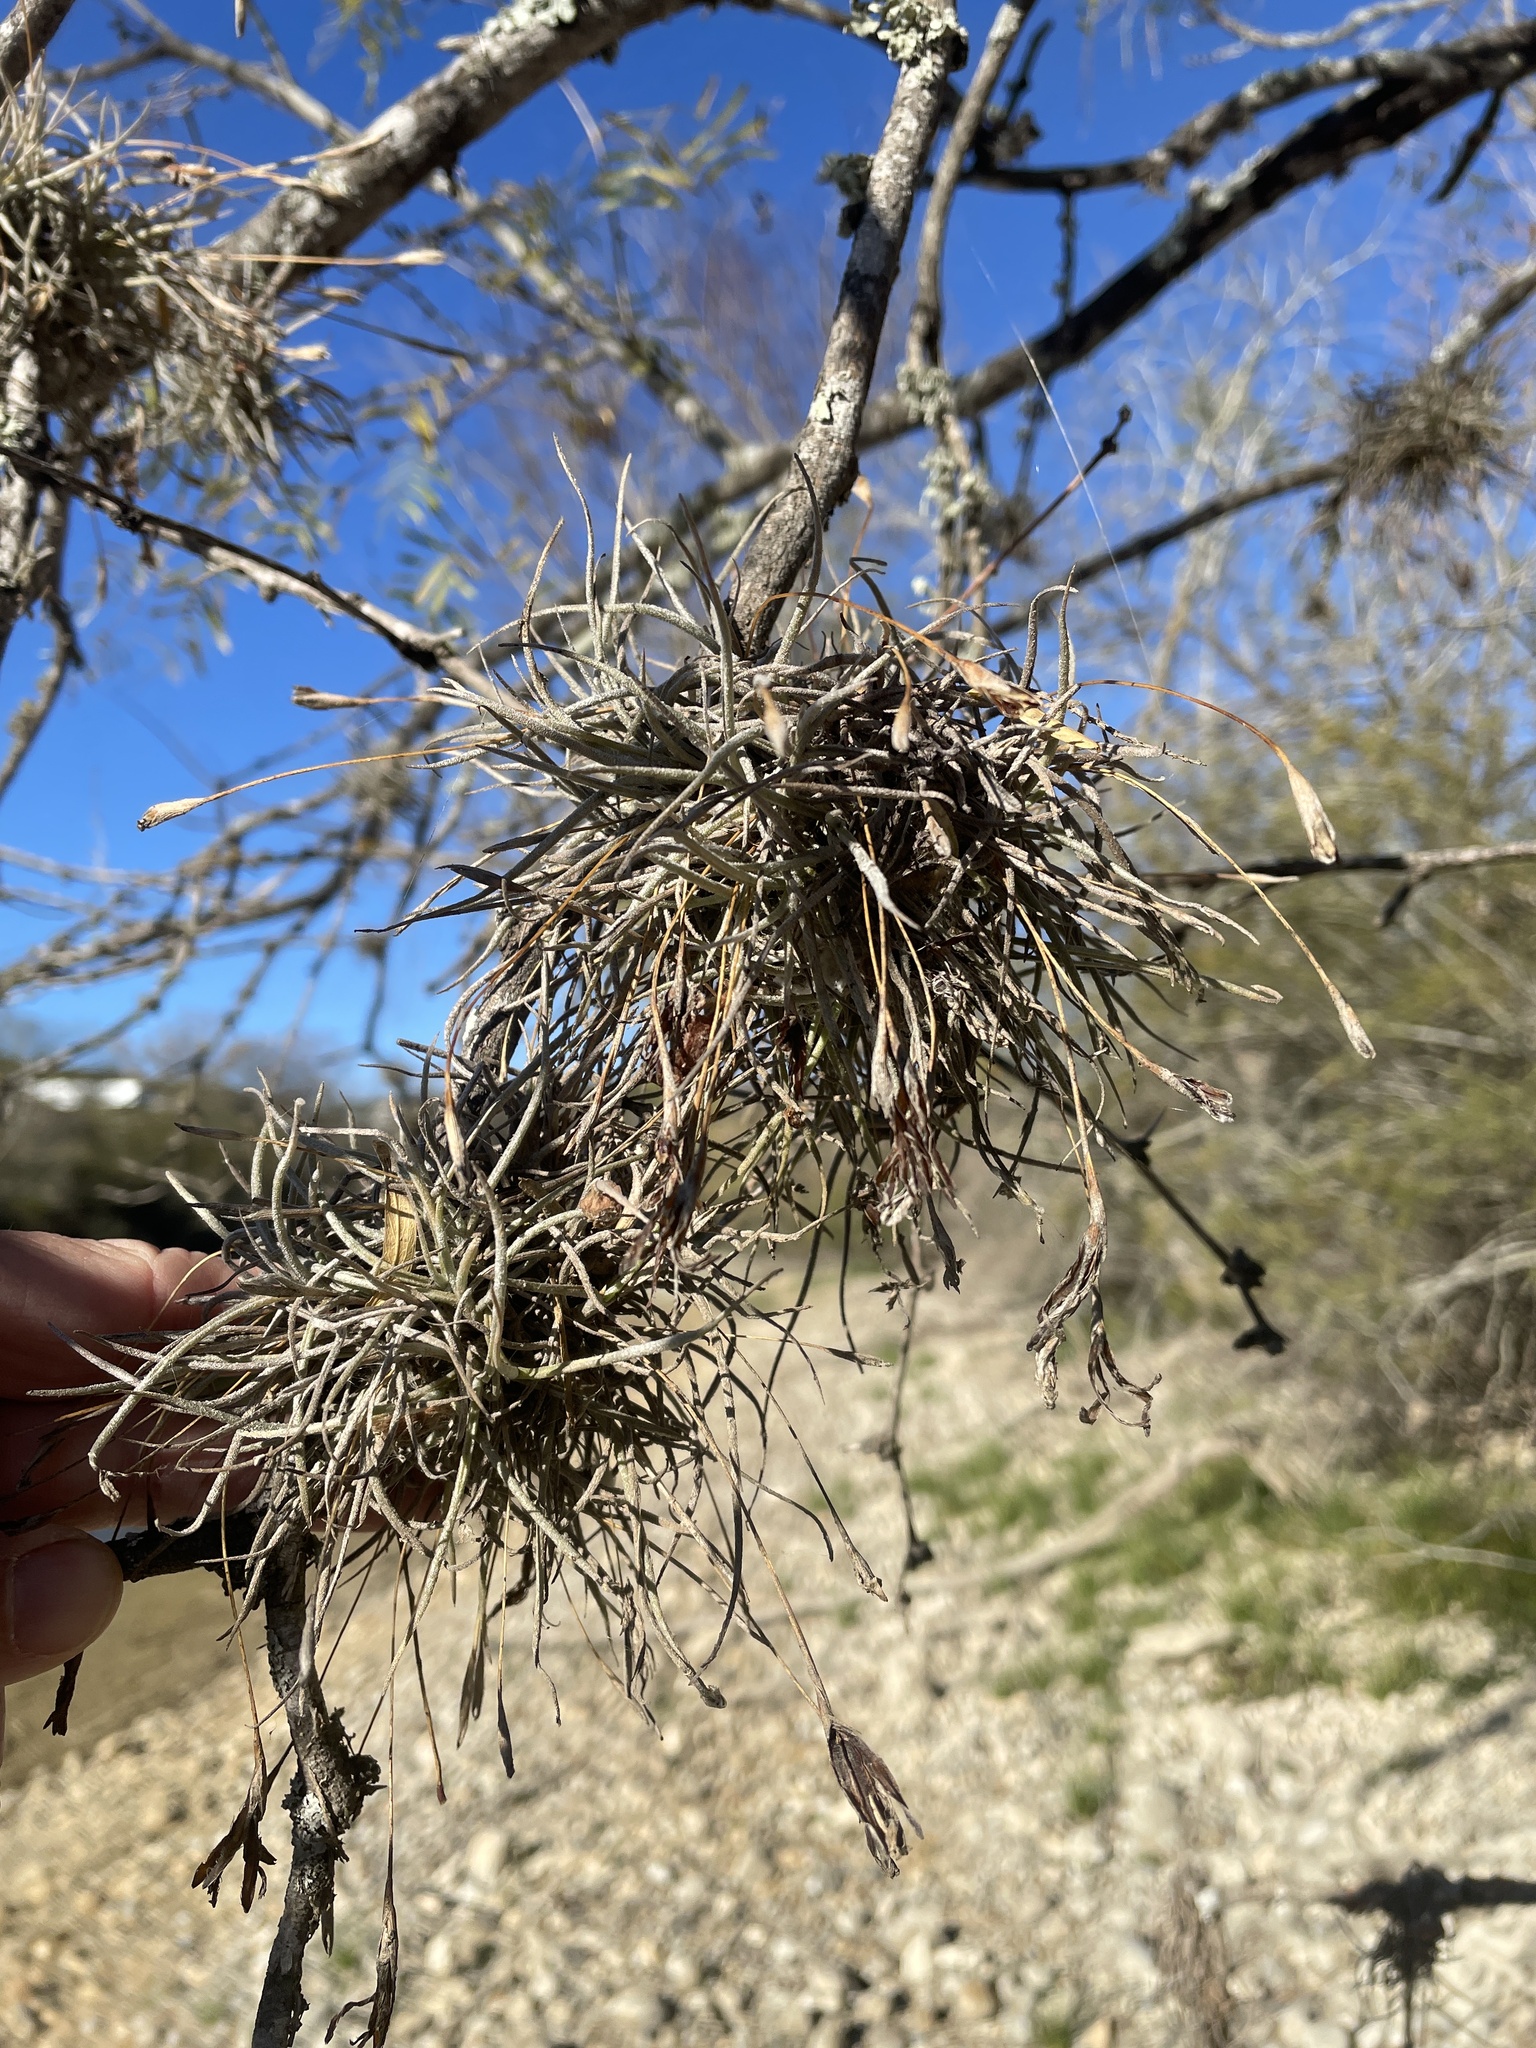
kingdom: Plantae
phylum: Tracheophyta
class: Liliopsida
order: Poales
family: Bromeliaceae
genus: Tillandsia
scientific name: Tillandsia recurvata
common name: Small ballmoss
